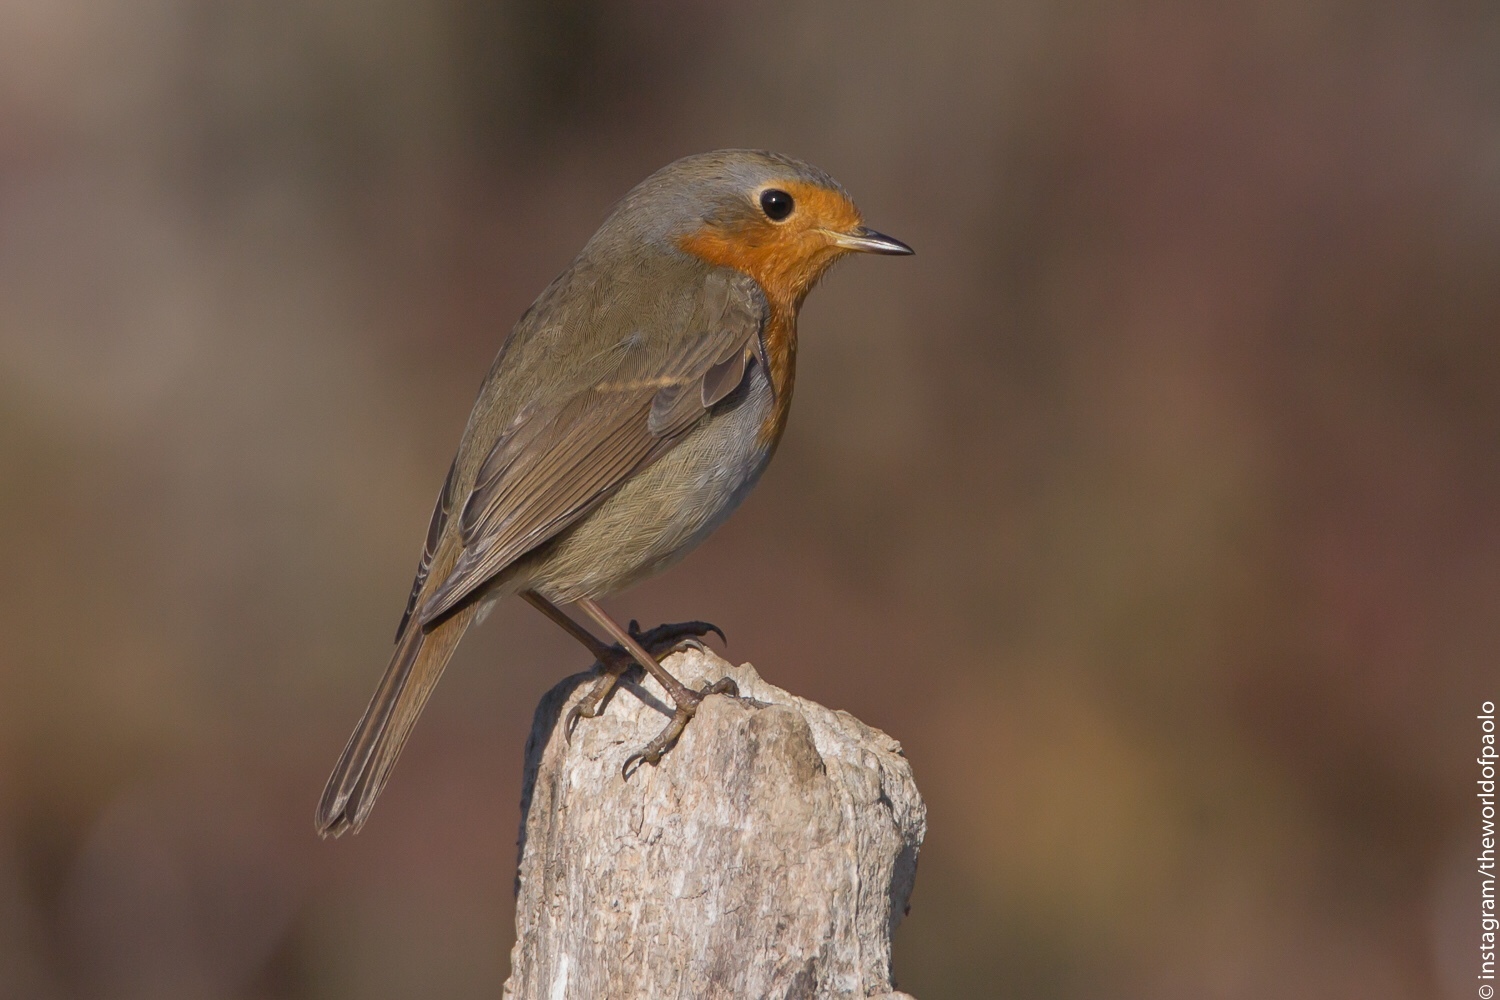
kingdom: Animalia
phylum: Chordata
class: Aves
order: Passeriformes
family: Muscicapidae
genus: Erithacus
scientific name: Erithacus rubecula
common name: European robin
